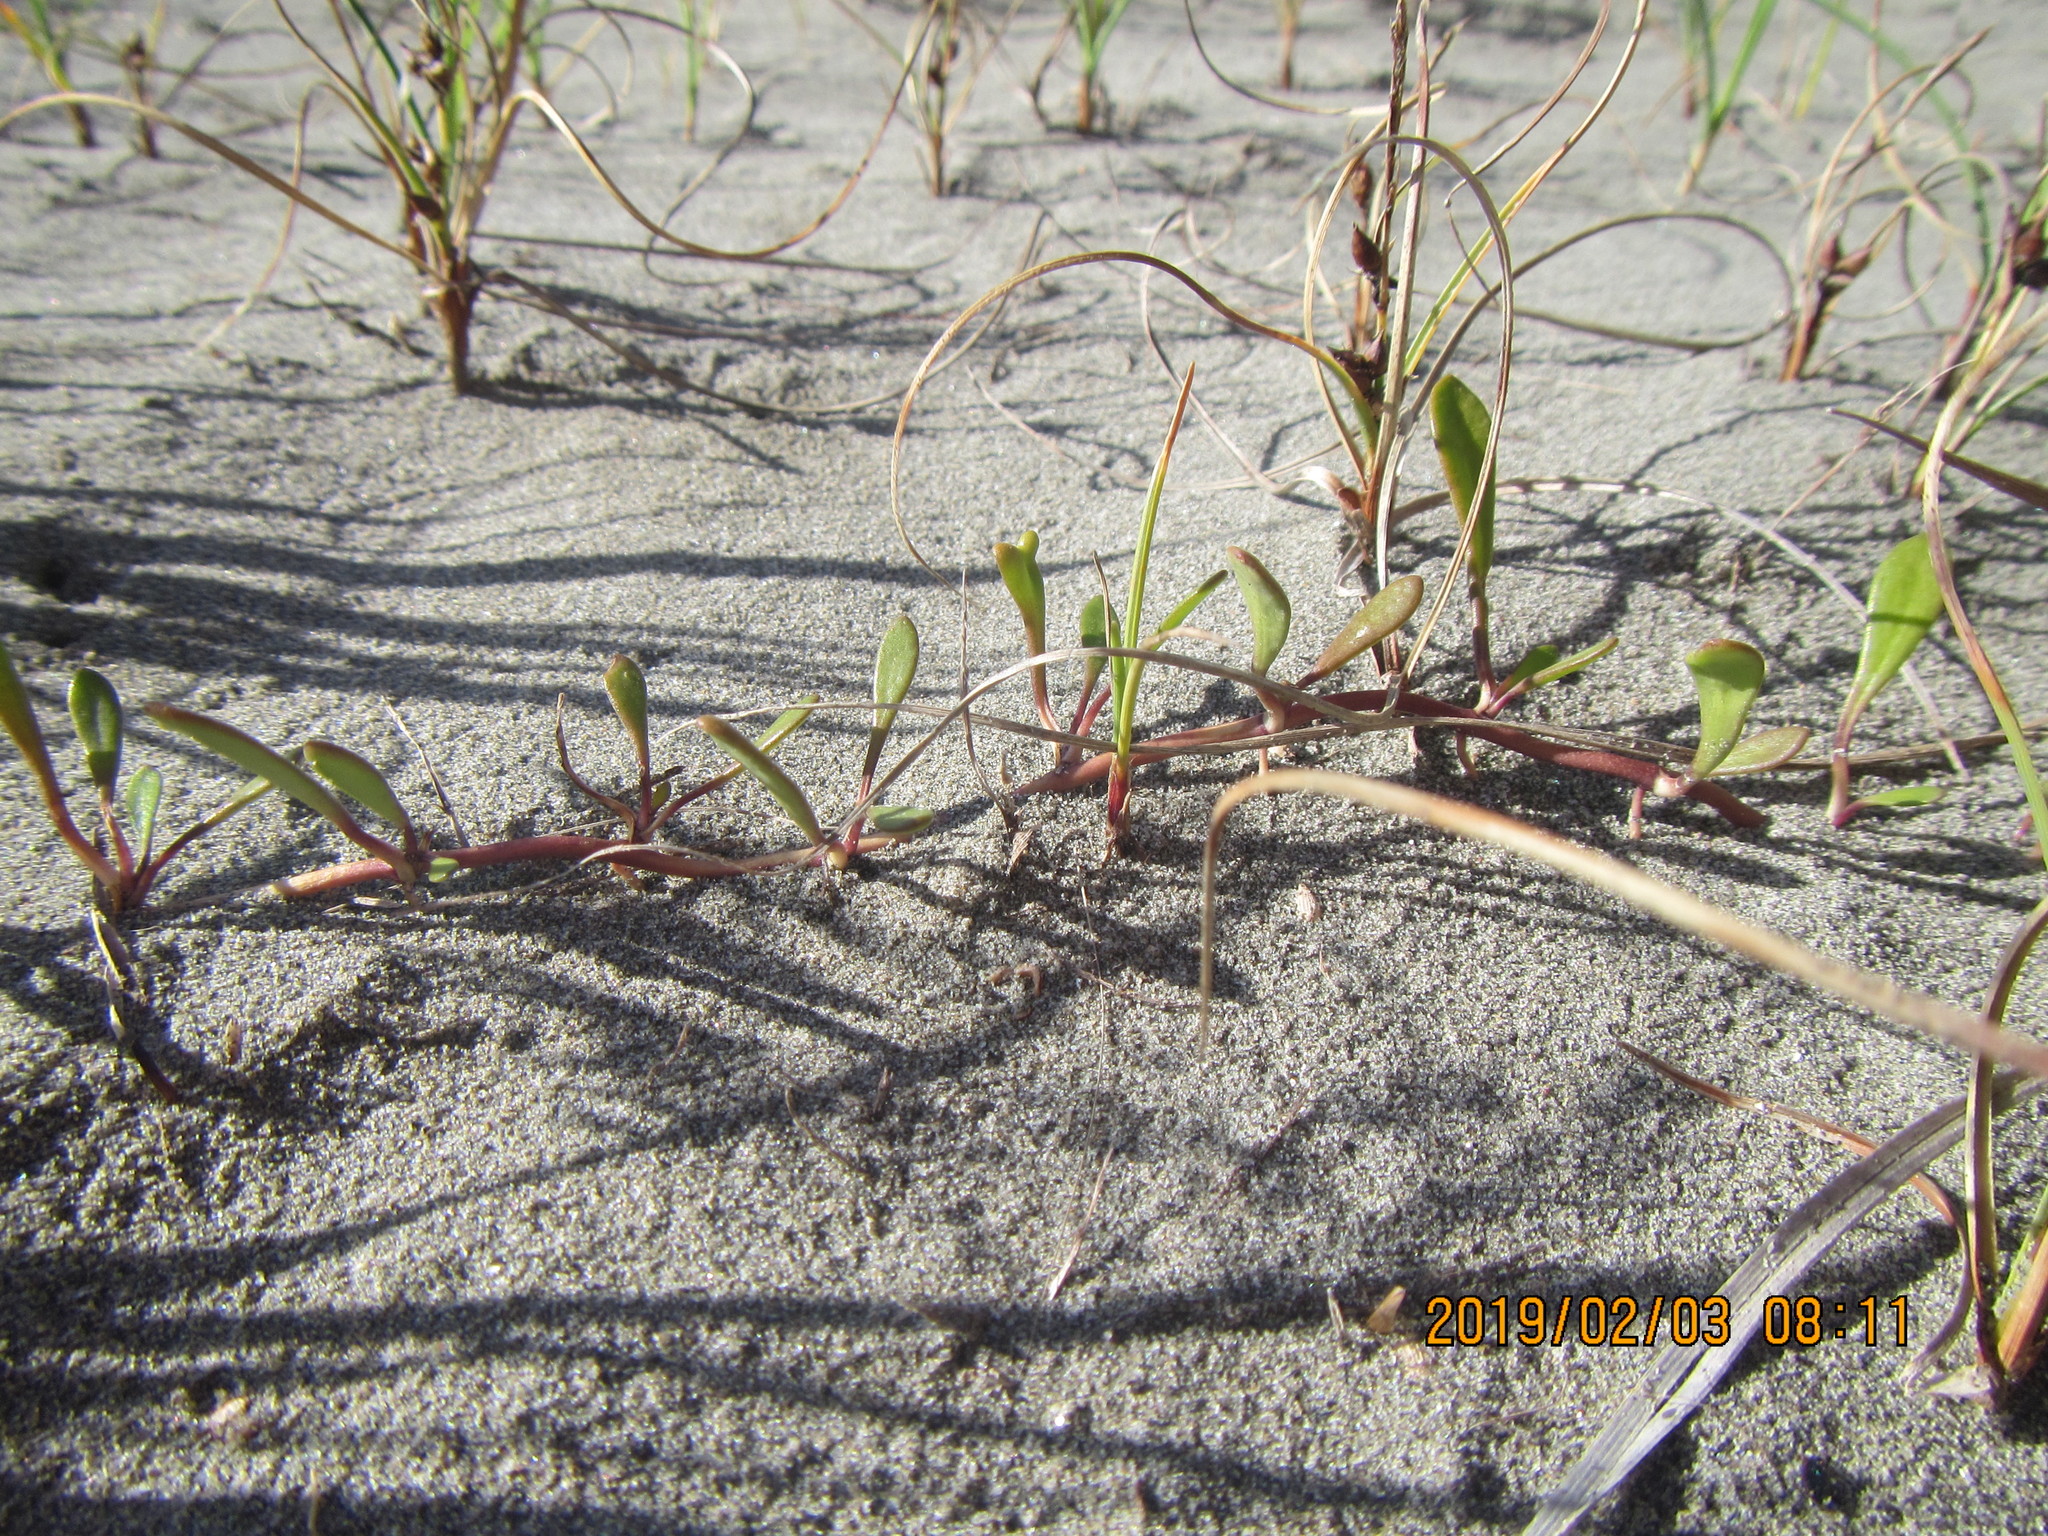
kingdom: Plantae
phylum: Tracheophyta
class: Magnoliopsida
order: Asterales
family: Goodeniaceae
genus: Goodenia
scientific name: Goodenia radicans
